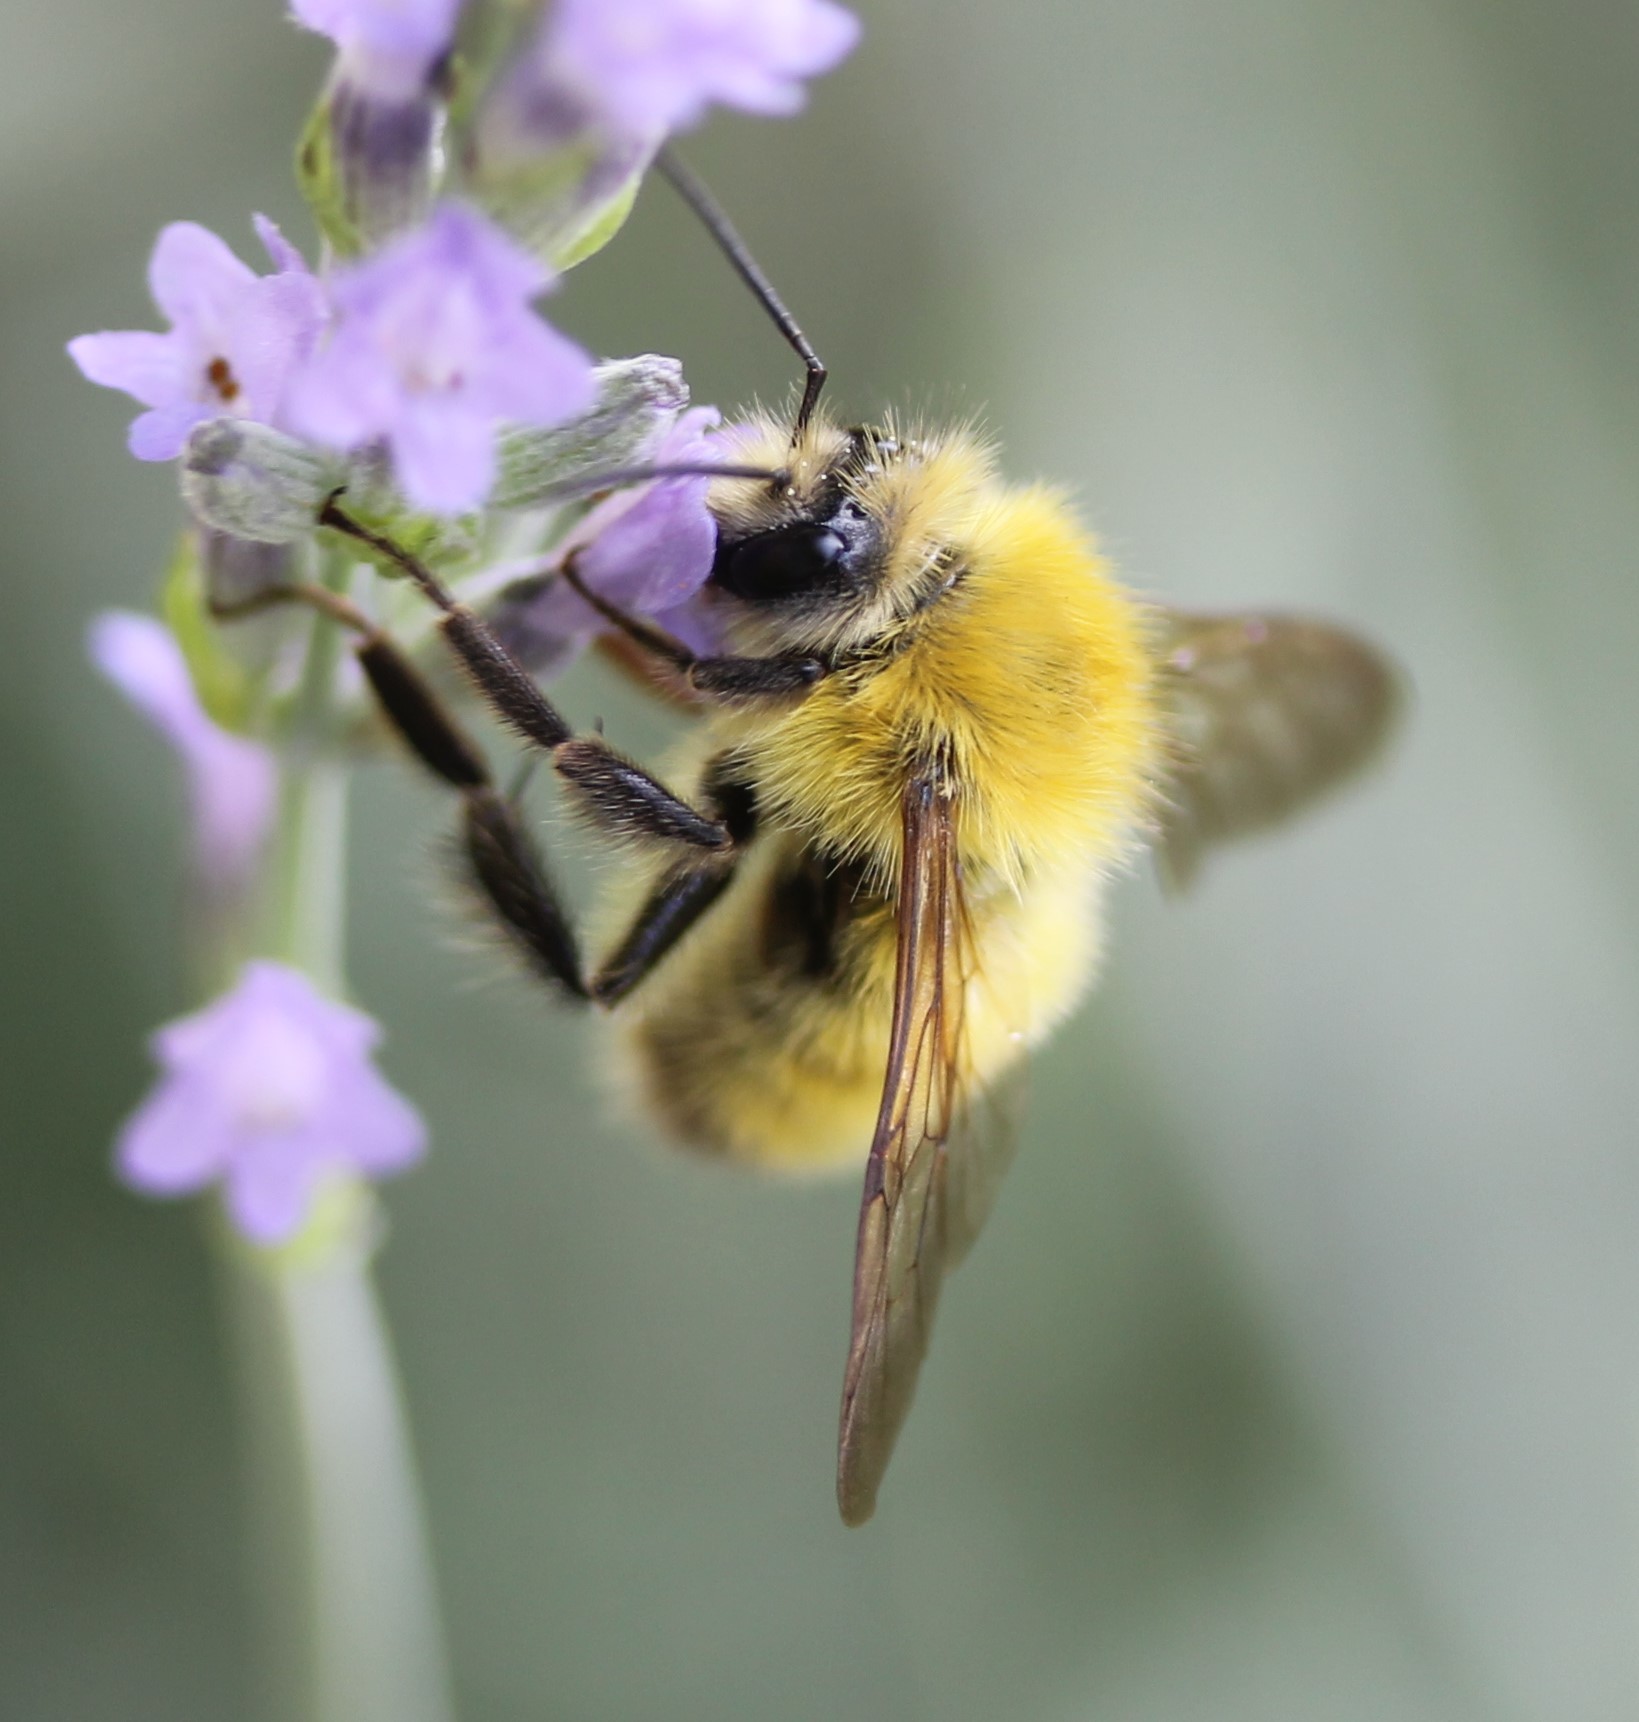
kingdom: Animalia
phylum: Arthropoda
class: Insecta
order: Hymenoptera
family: Apidae
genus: Bombus
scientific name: Bombus perplexus
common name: Confusing bumble bee
